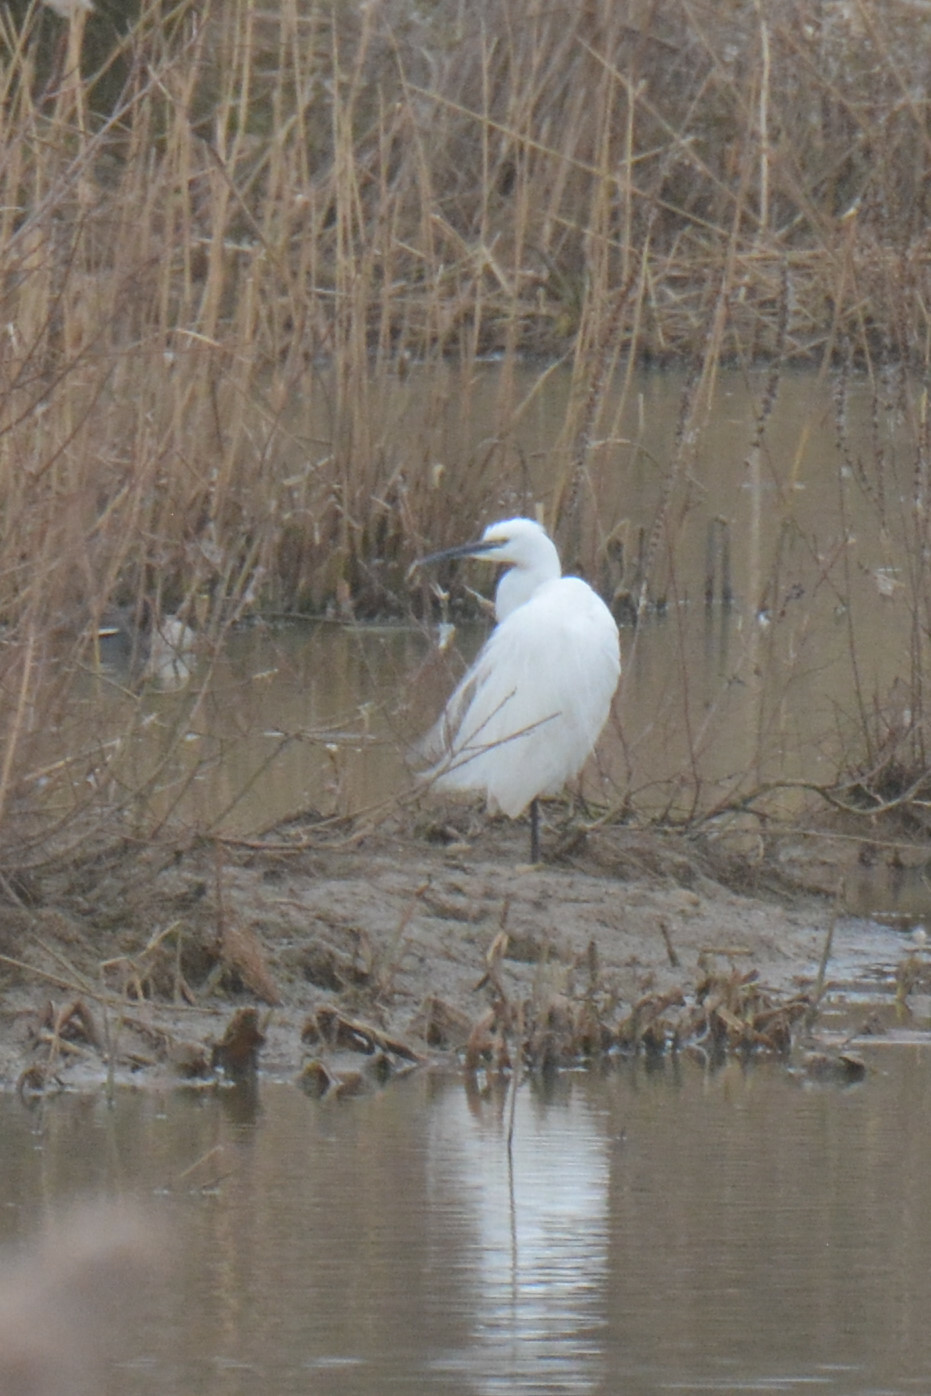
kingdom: Animalia
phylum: Chordata
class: Aves
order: Pelecaniformes
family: Ardeidae
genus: Egretta
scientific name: Egretta garzetta
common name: Little egret
